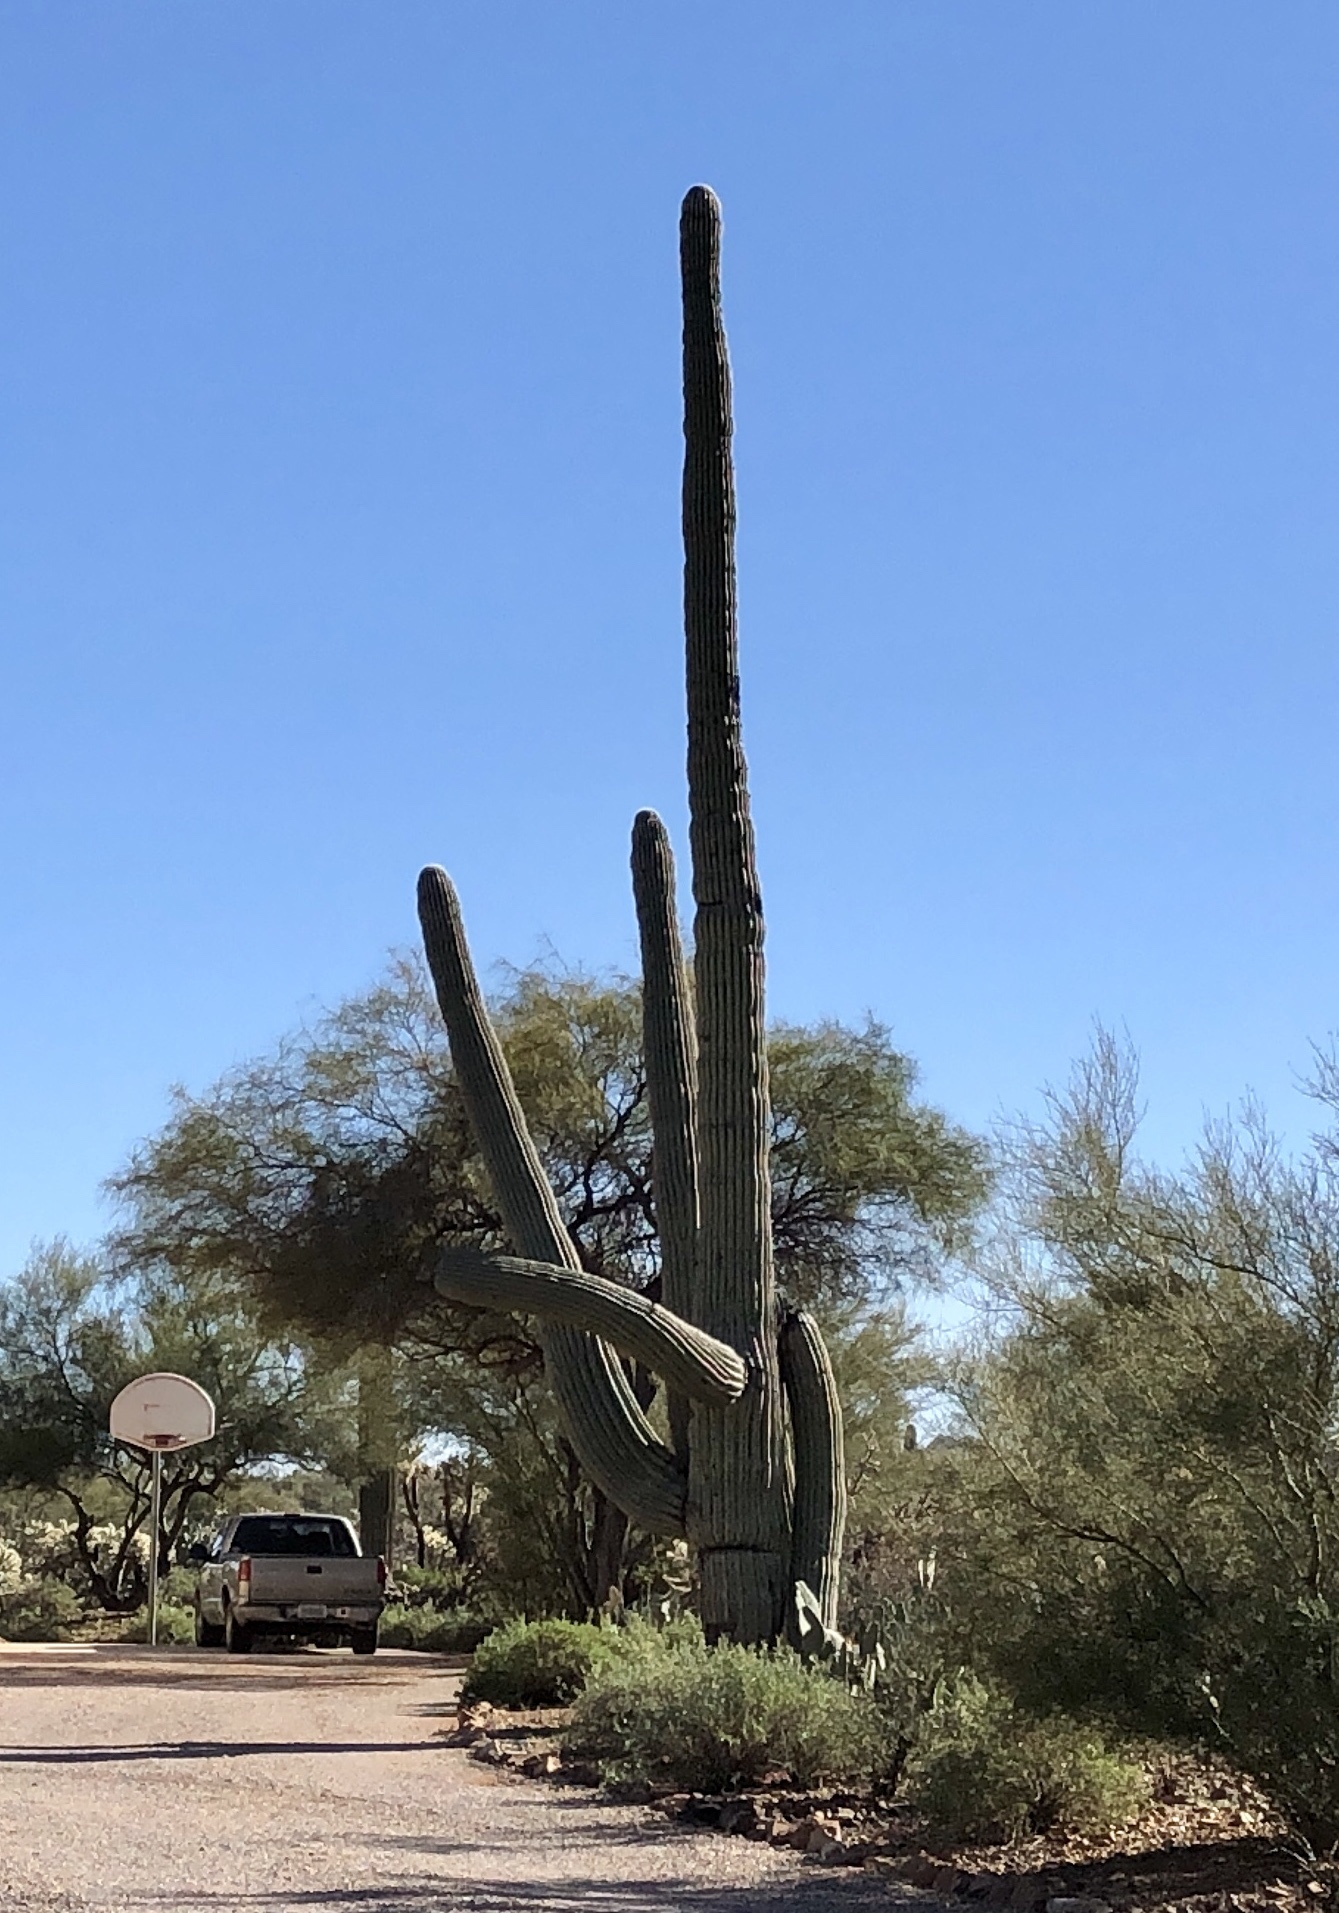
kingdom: Plantae
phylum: Tracheophyta
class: Magnoliopsida
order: Caryophyllales
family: Cactaceae
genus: Carnegiea
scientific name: Carnegiea gigantea
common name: Saguaro
